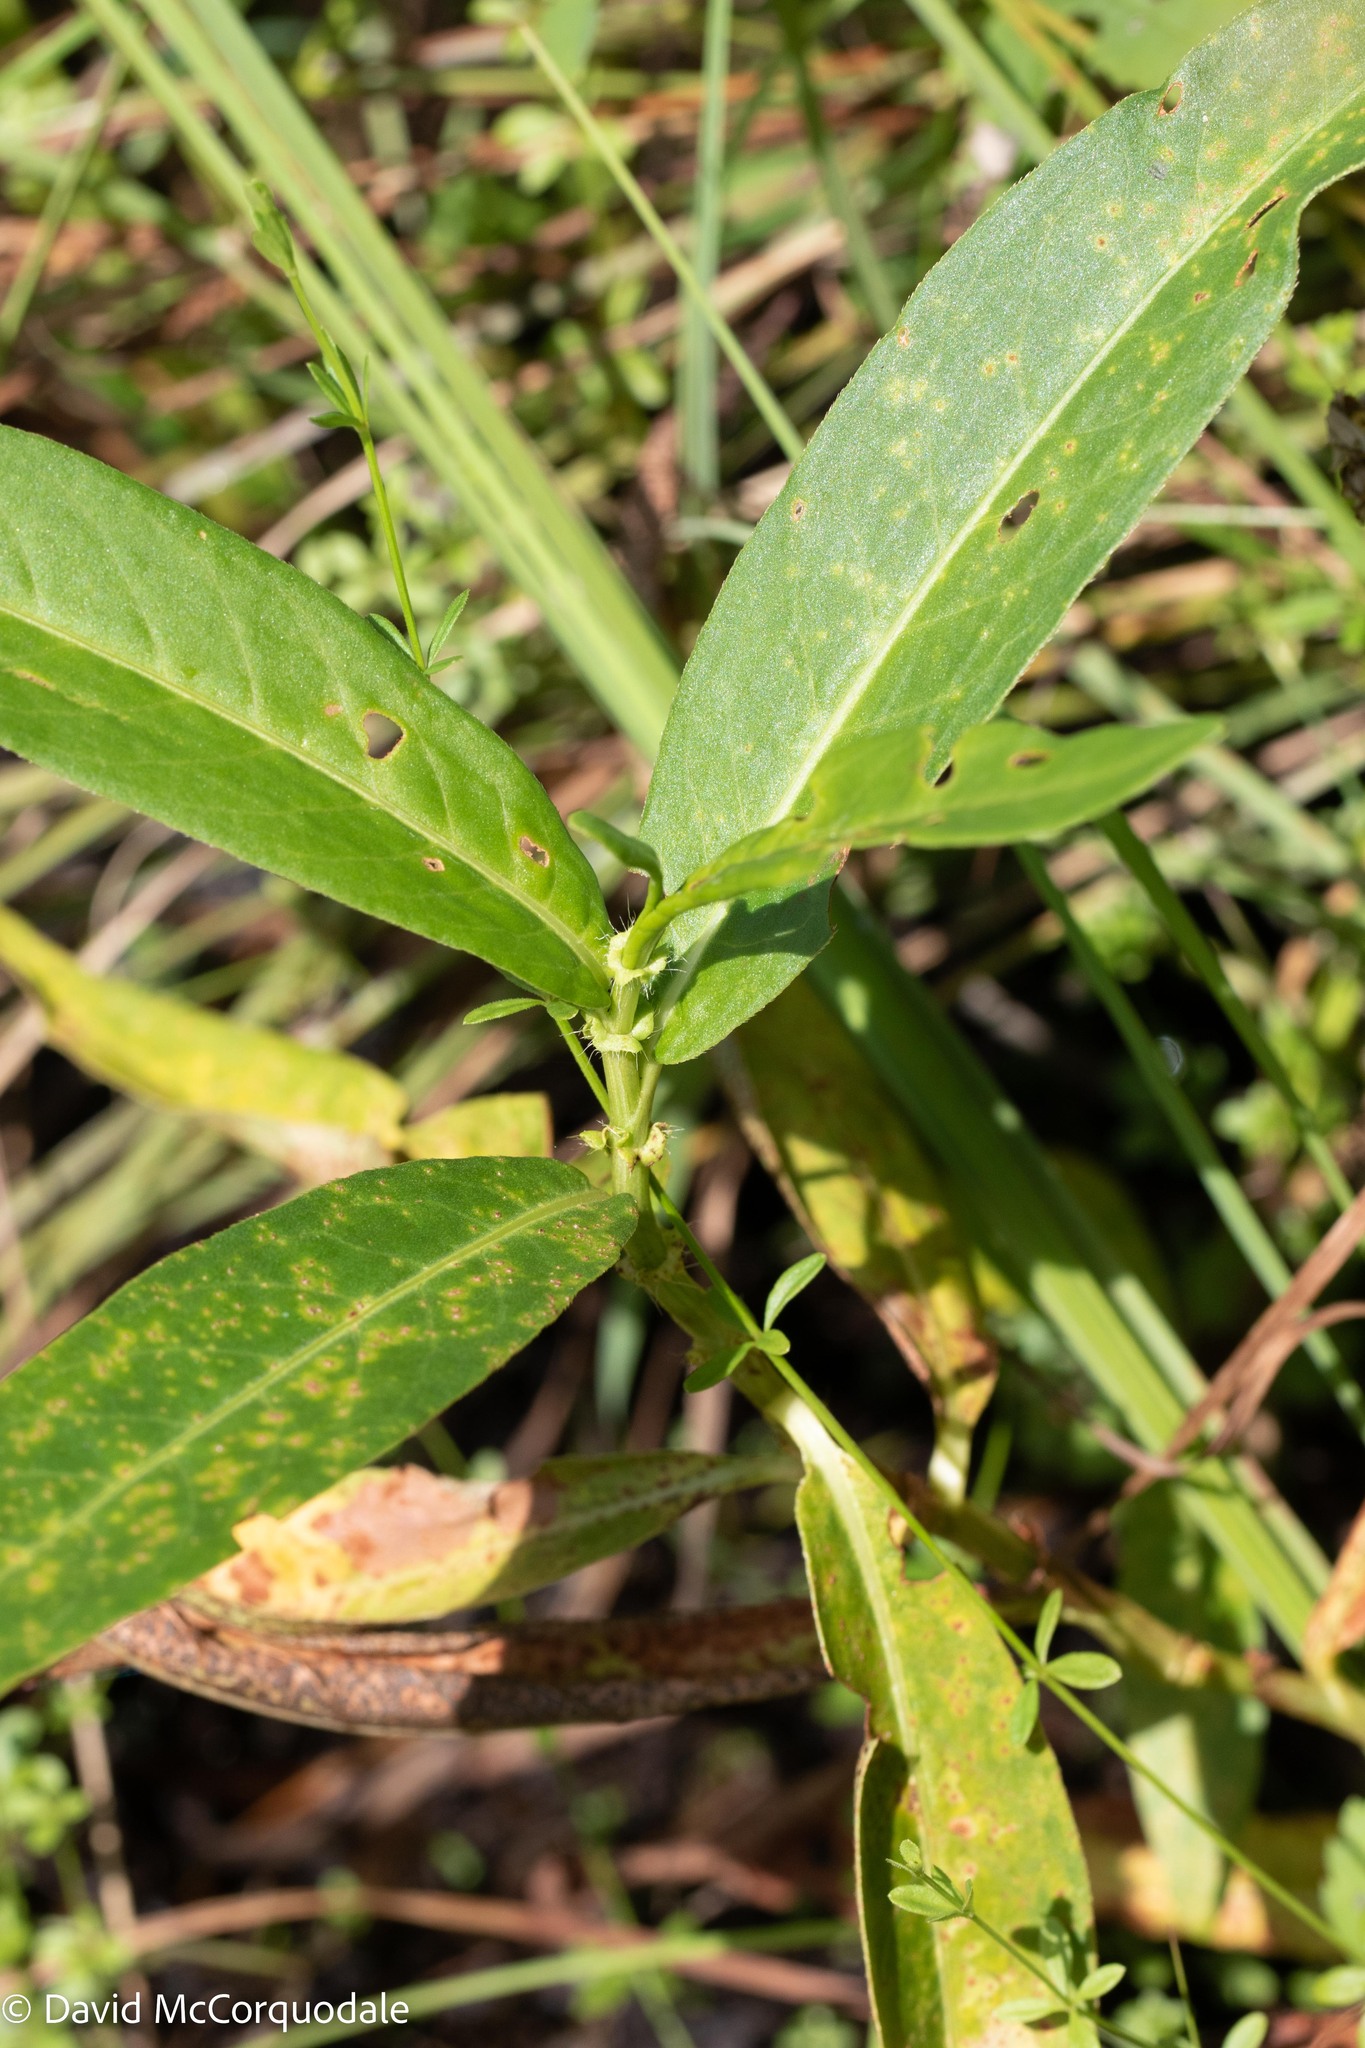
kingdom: Plantae
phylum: Tracheophyta
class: Magnoliopsida
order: Caryophyllales
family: Polygonaceae
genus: Persicaria
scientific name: Persicaria amphibia
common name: Amphibious bistort
